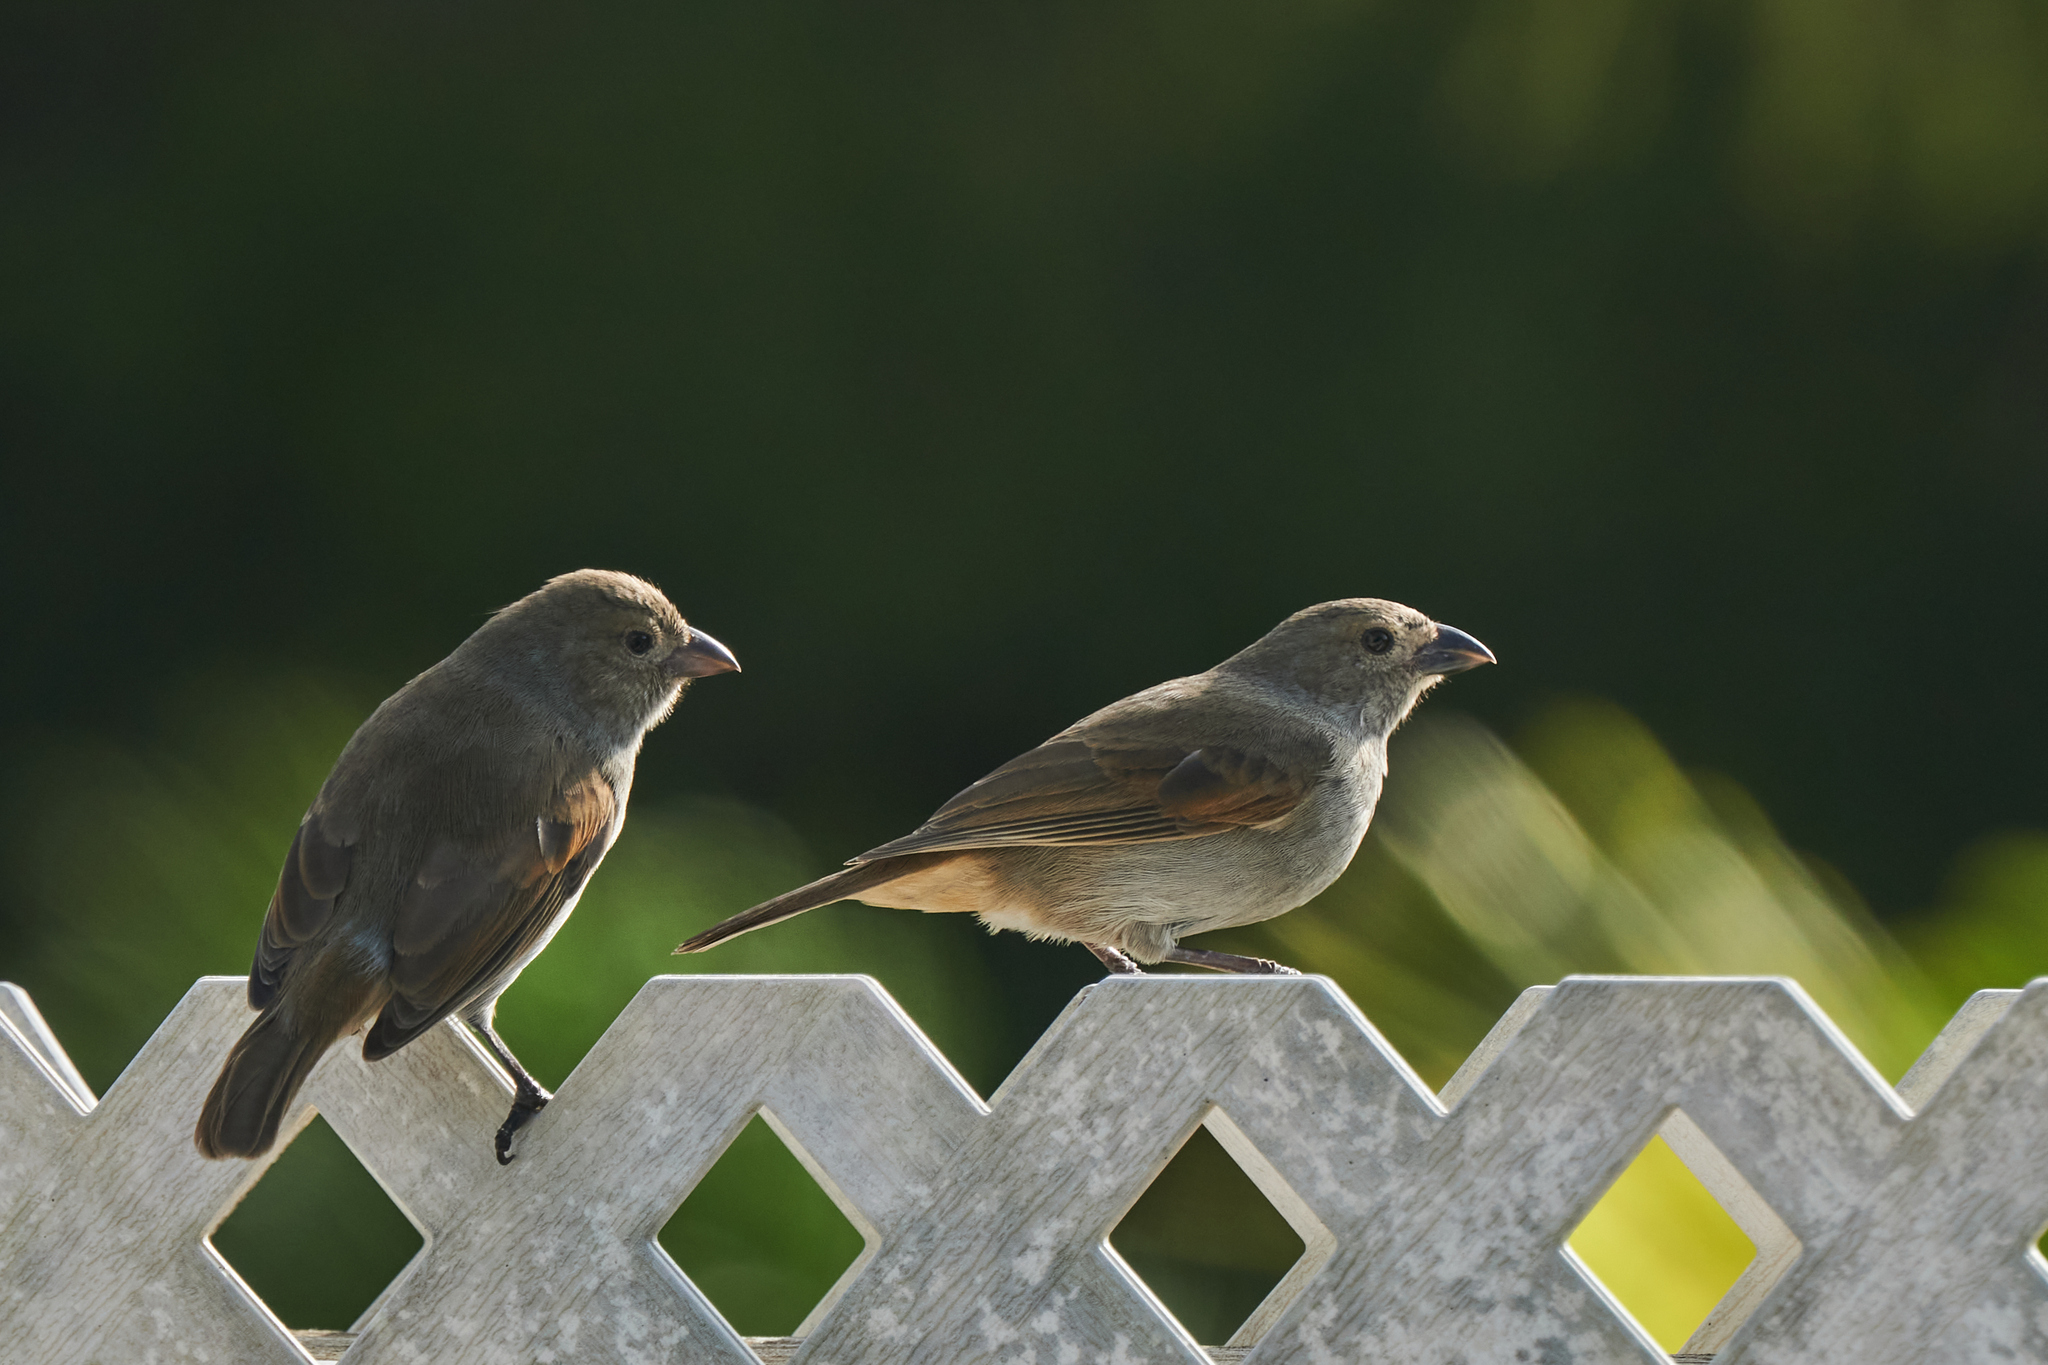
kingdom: Animalia
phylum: Chordata
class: Aves
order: Passeriformes
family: Thraupidae
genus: Loxigilla
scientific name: Loxigilla barbadensis
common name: Barbados bullfinch
